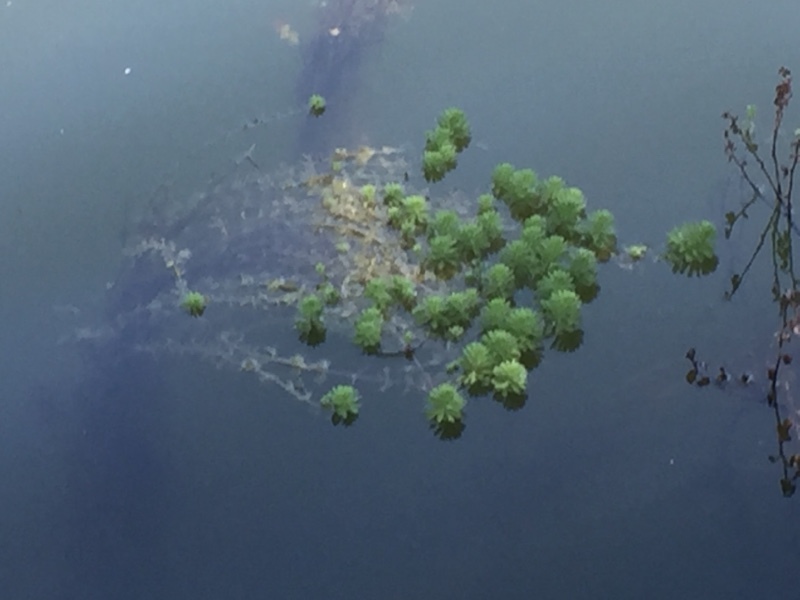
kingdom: Plantae
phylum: Tracheophyta
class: Magnoliopsida
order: Saxifragales
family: Haloragaceae
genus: Myriophyllum
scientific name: Myriophyllum aquaticum
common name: Parrot's feather
